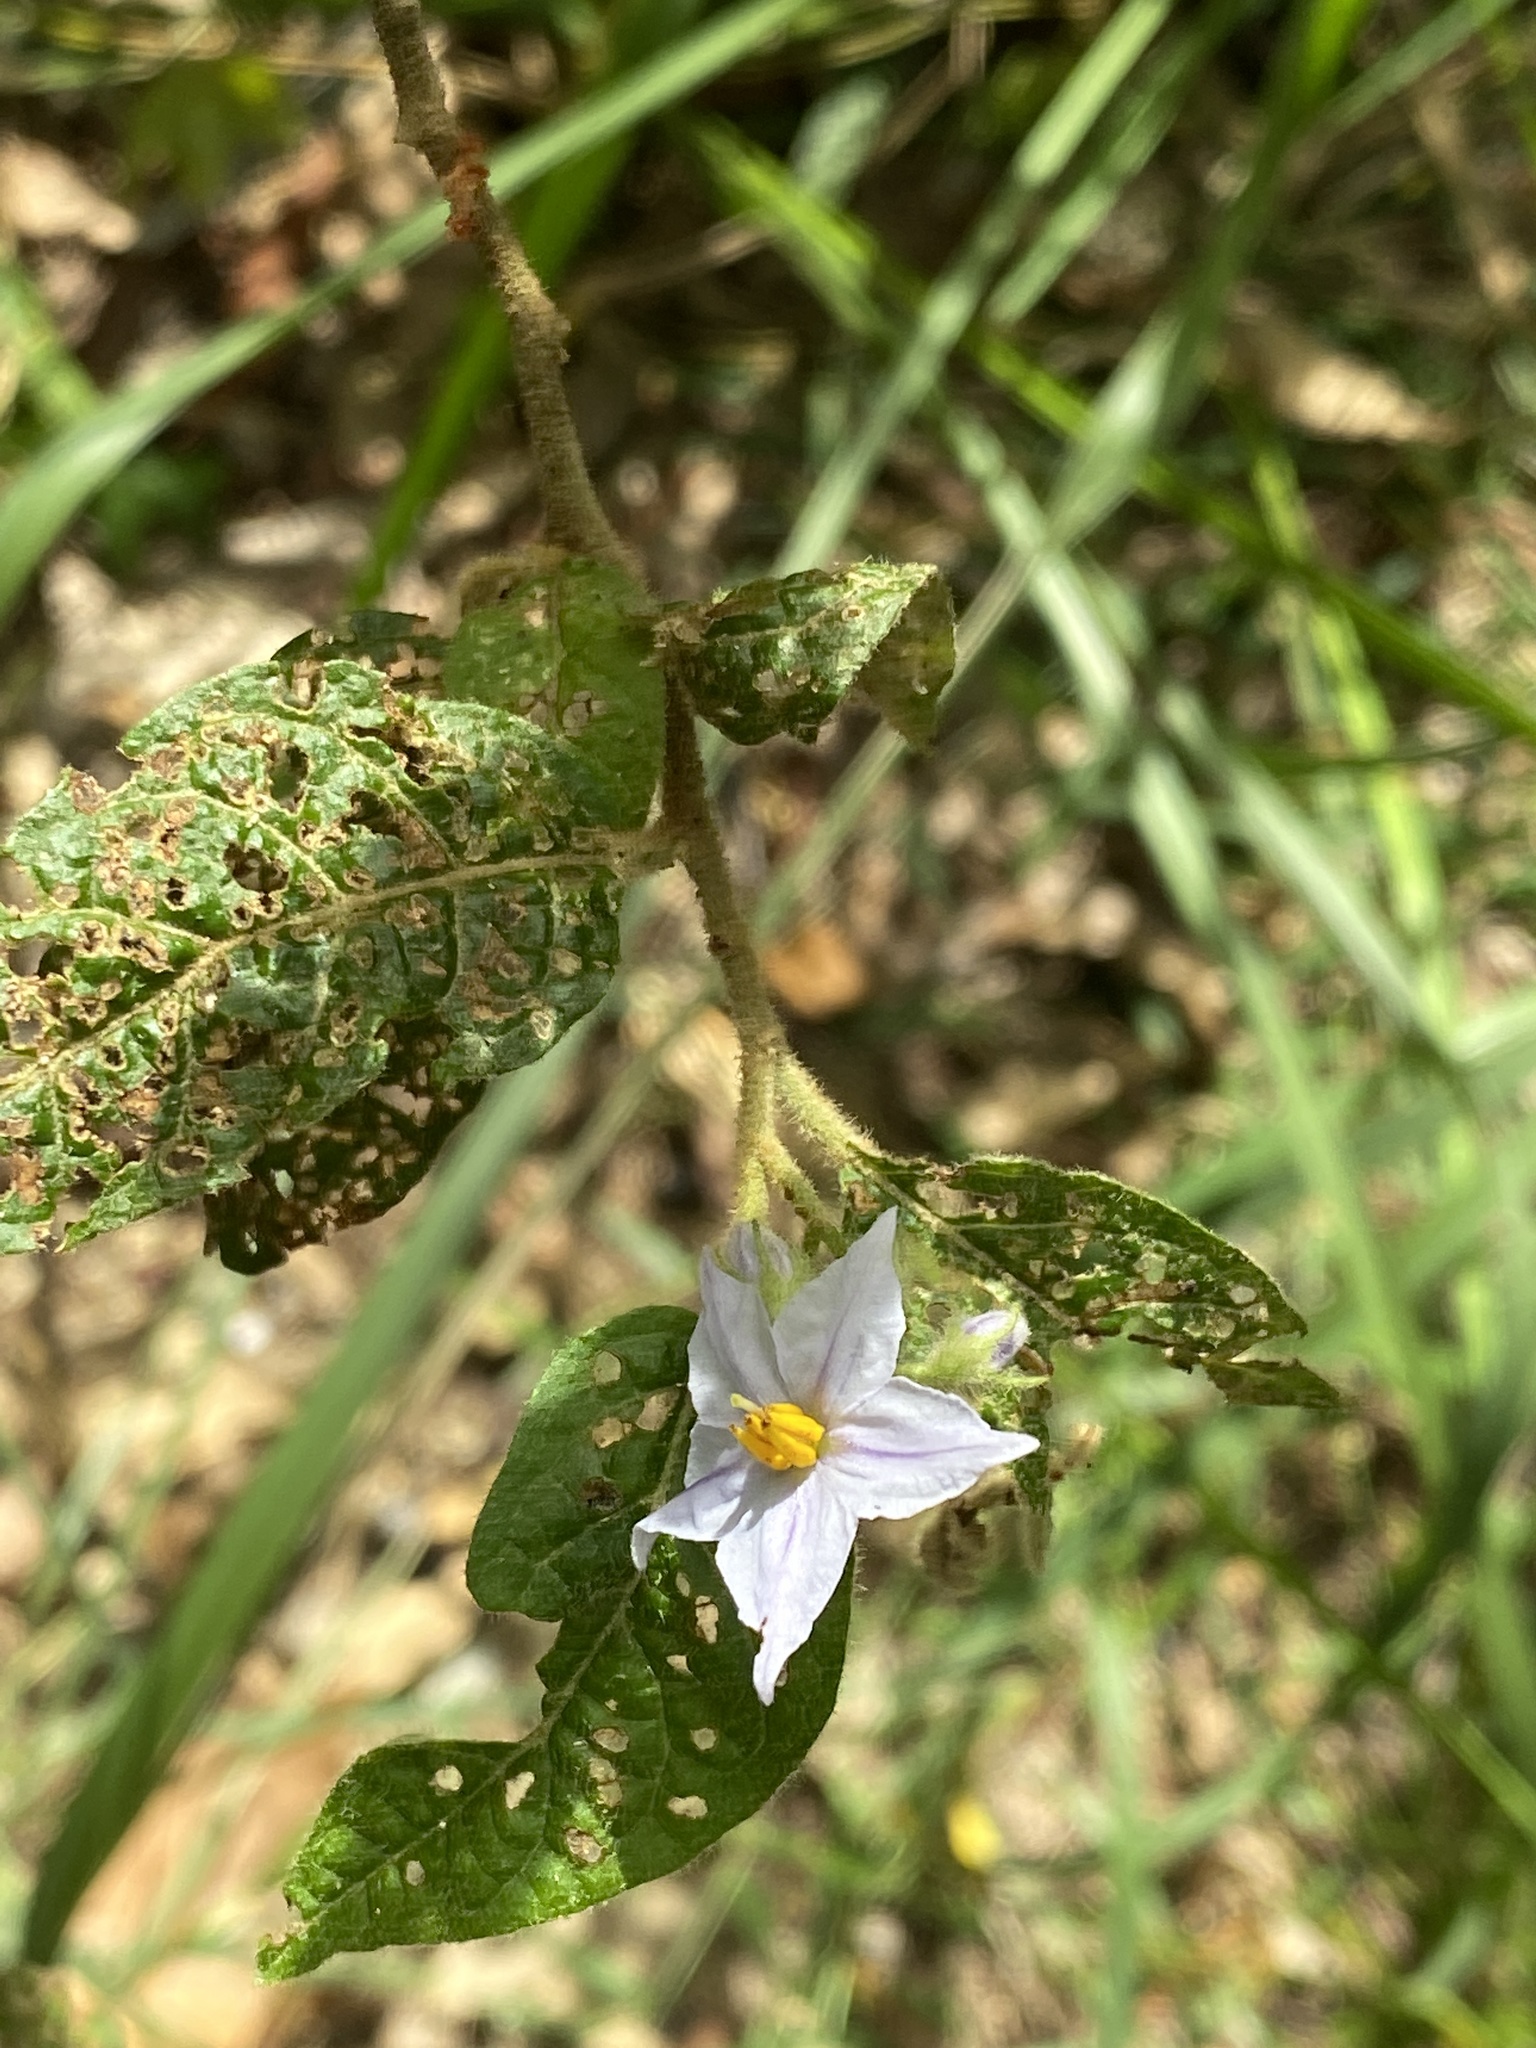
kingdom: Plantae
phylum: Tracheophyta
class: Magnoliopsida
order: Solanales
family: Solanaceae
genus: Solanum
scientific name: Solanum stelligerum
